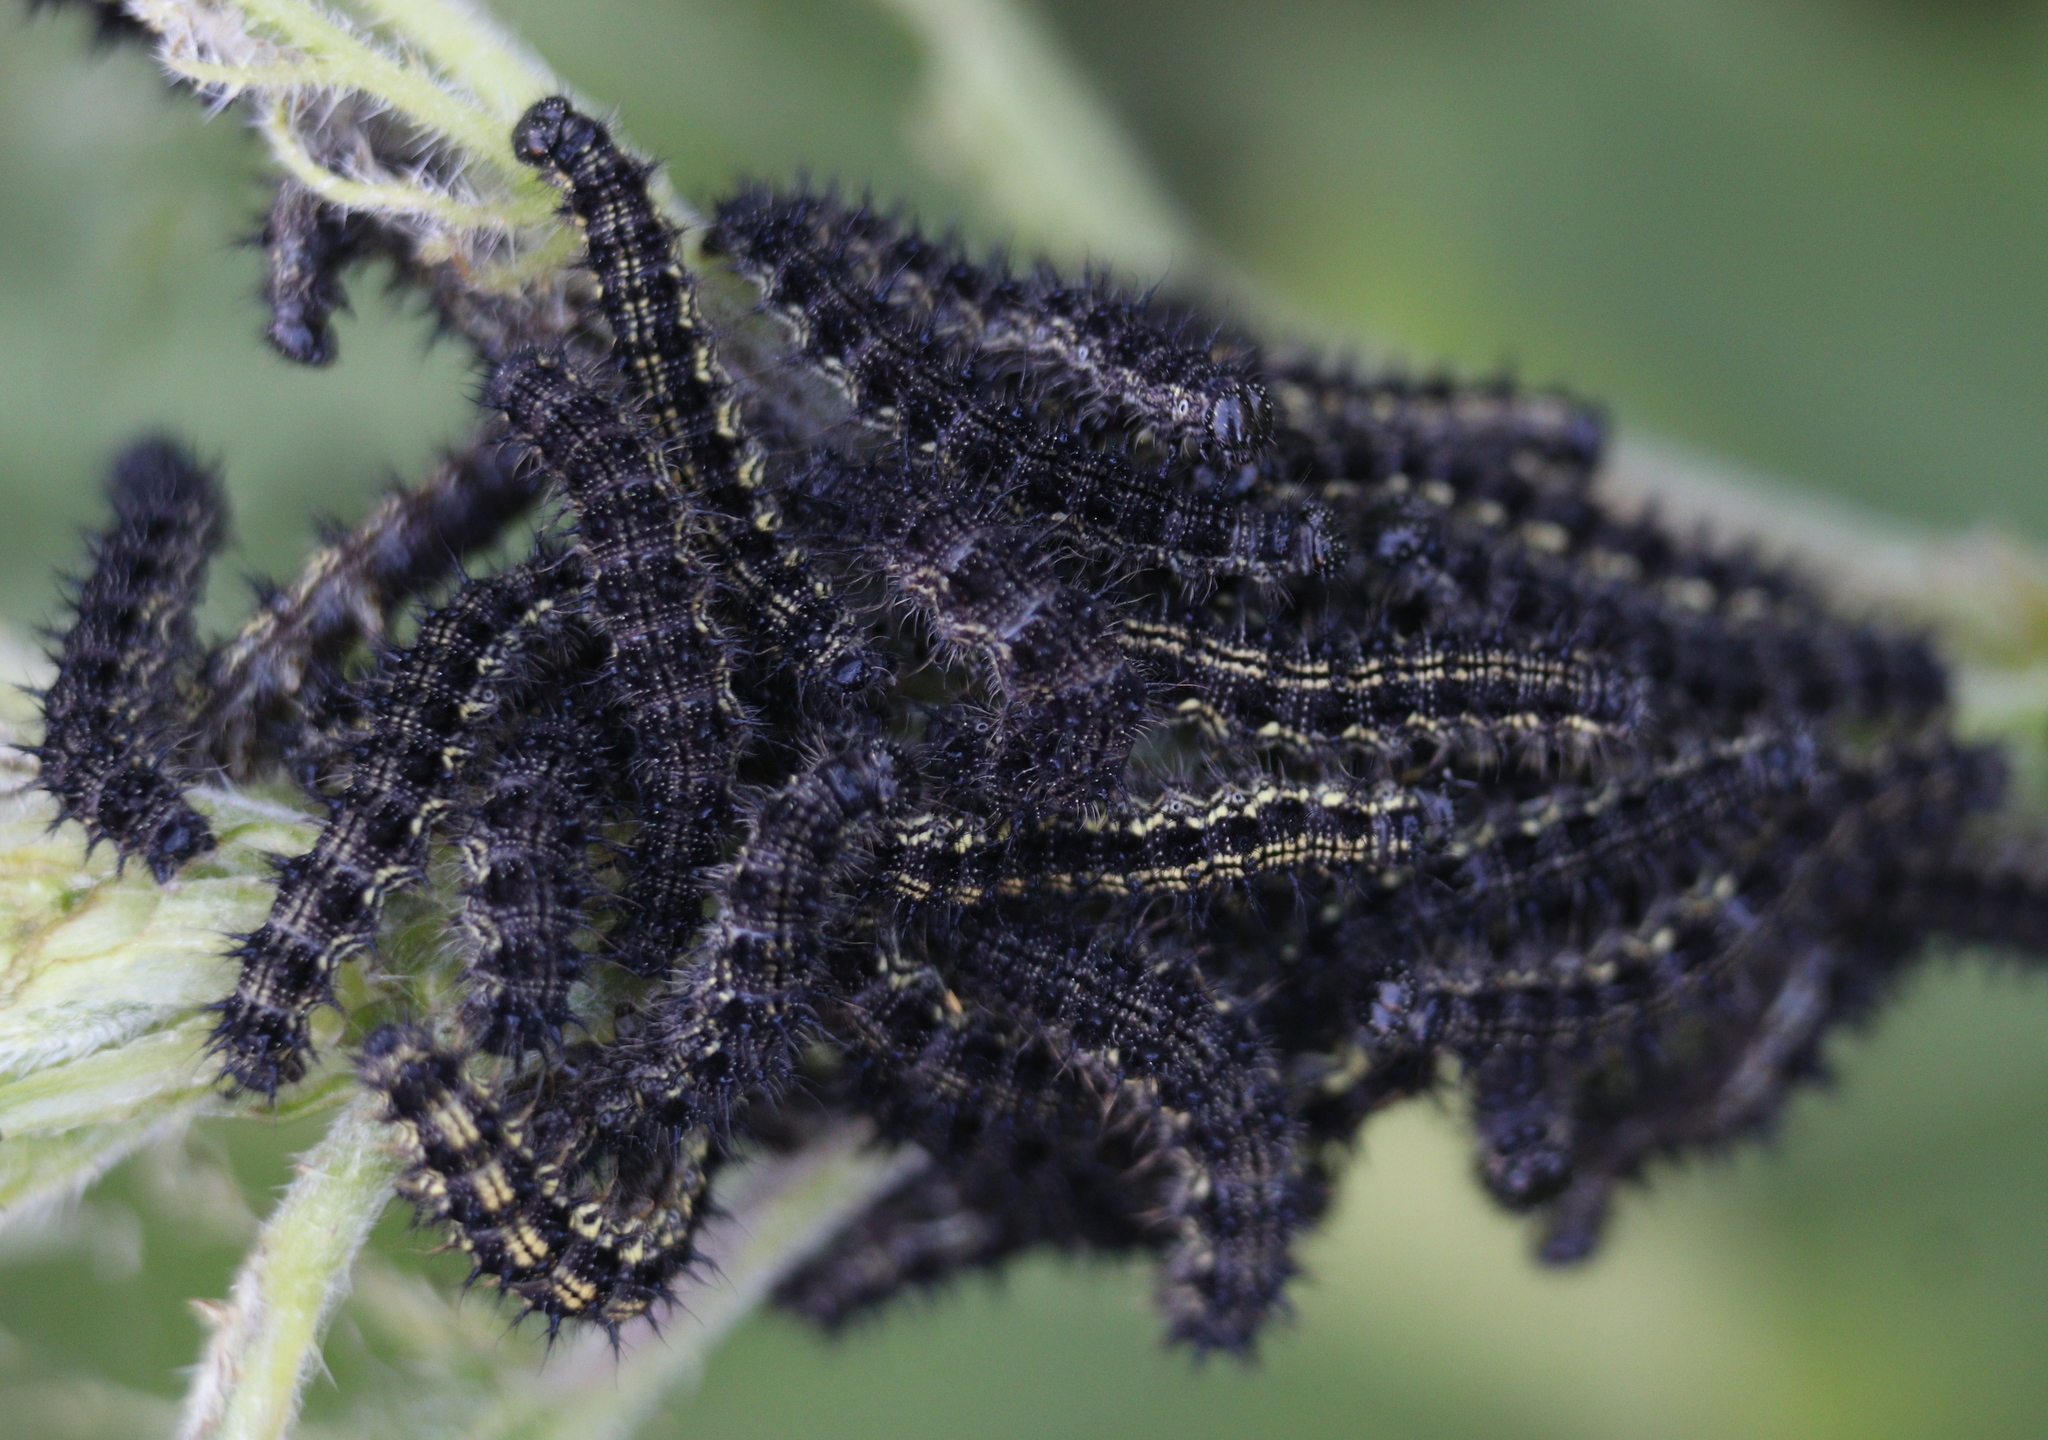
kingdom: Animalia
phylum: Arthropoda
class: Insecta
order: Lepidoptera
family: Nymphalidae
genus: Aglais
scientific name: Aglais urticae
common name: Small tortoiseshell
